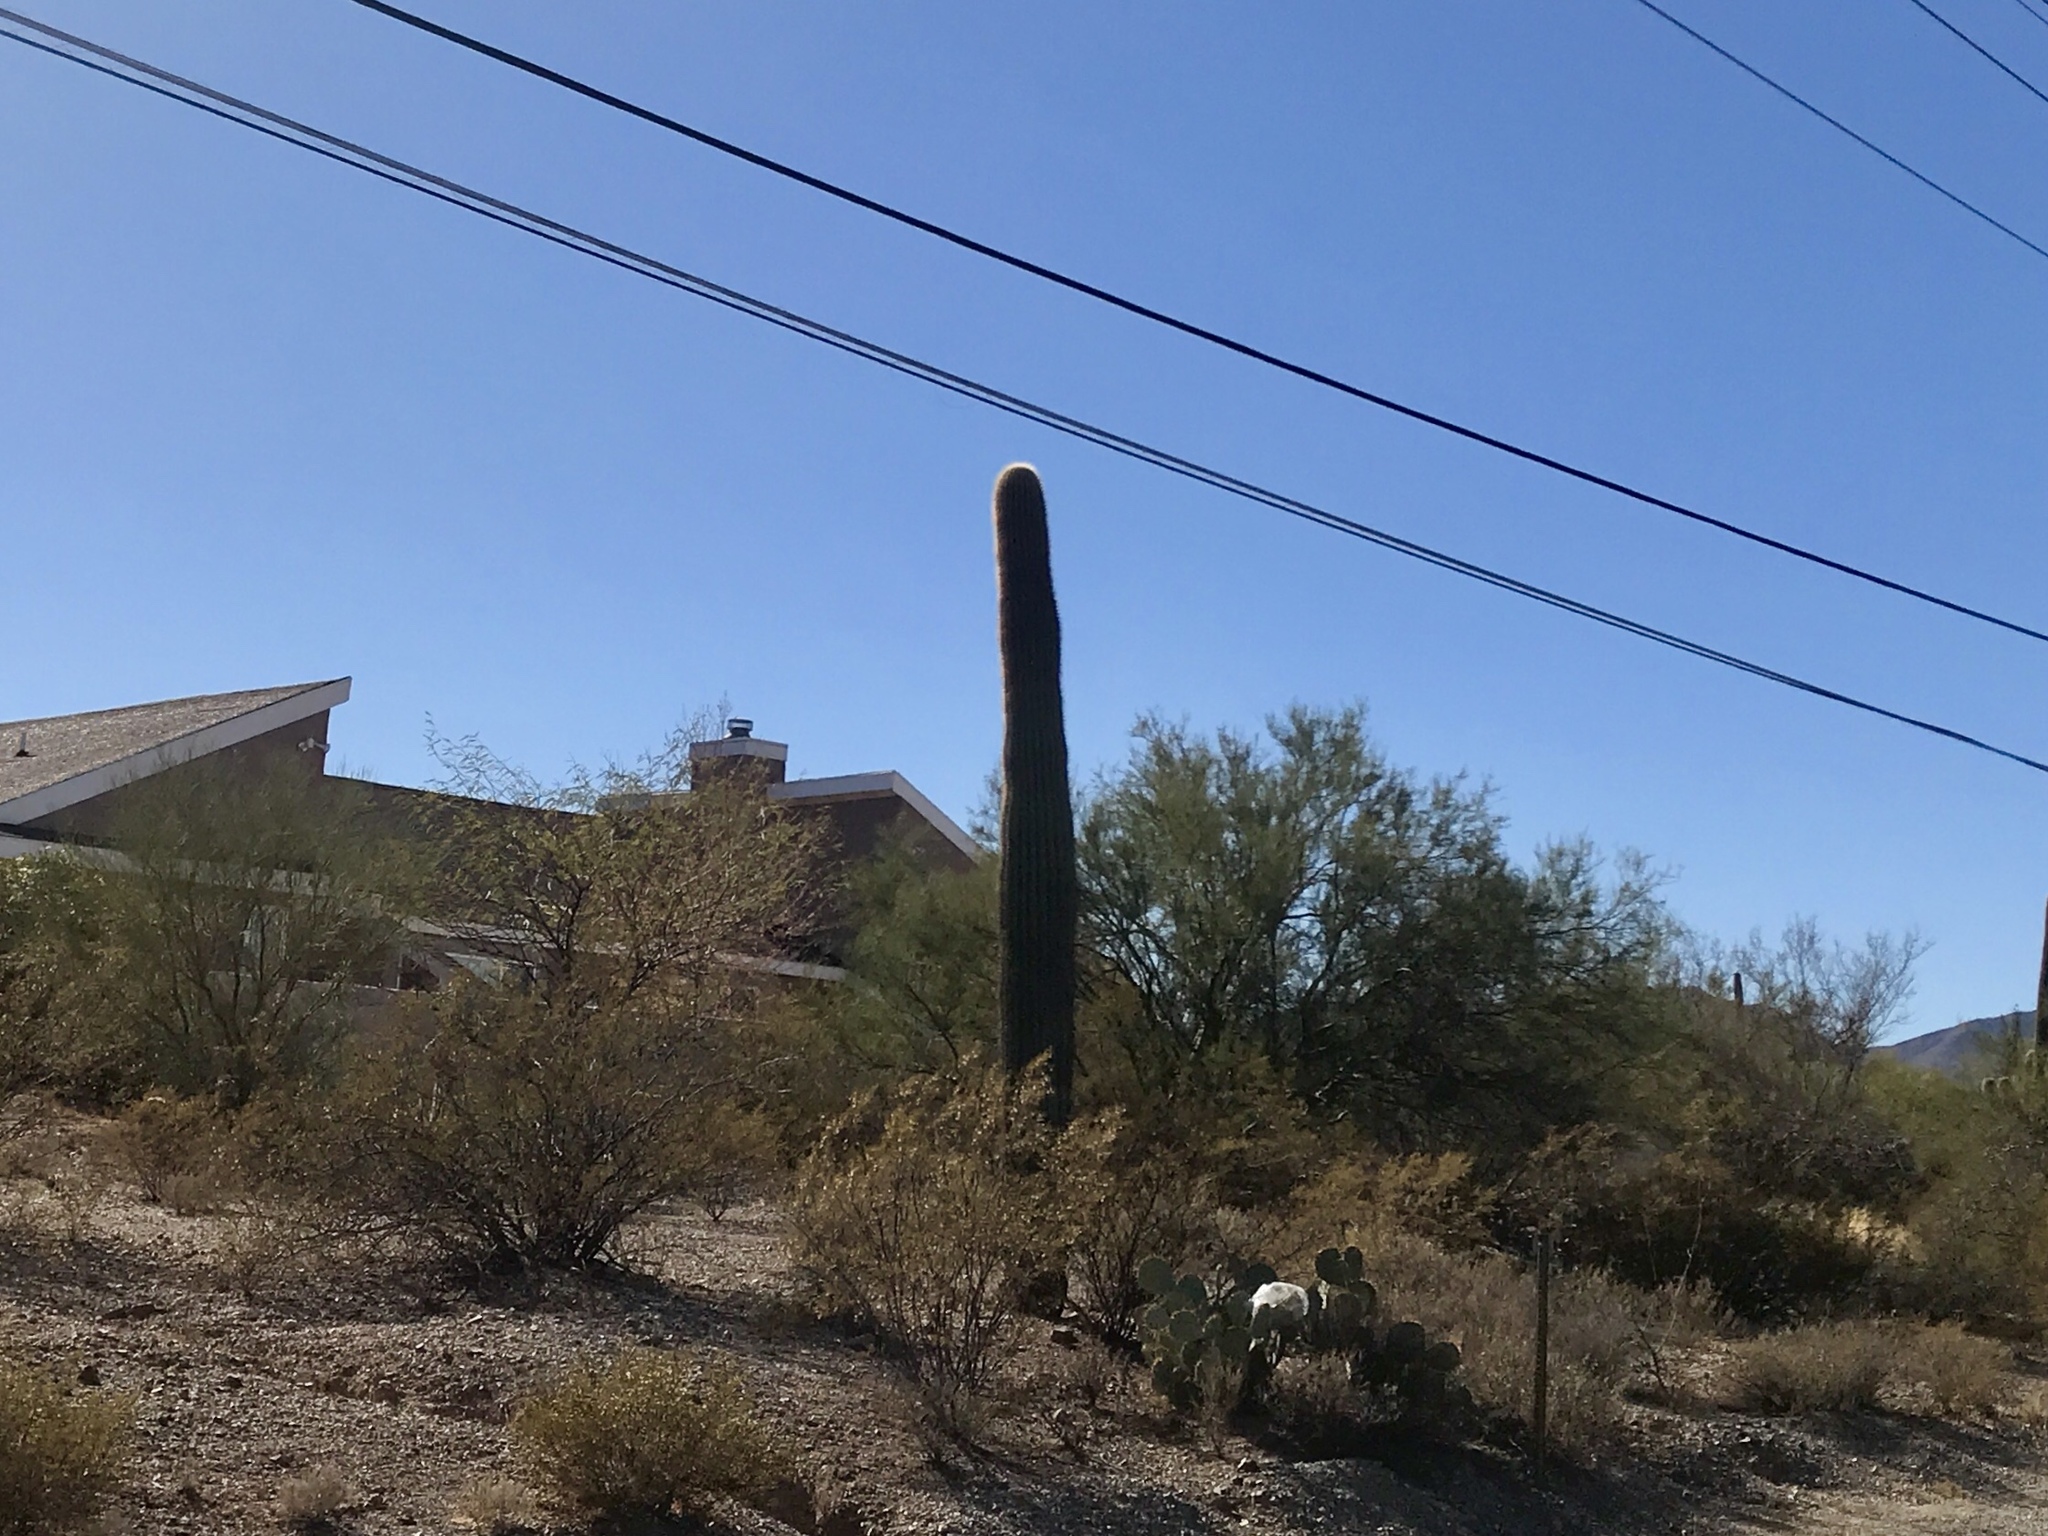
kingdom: Plantae
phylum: Tracheophyta
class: Magnoliopsida
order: Caryophyllales
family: Cactaceae
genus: Carnegiea
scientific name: Carnegiea gigantea
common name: Saguaro
